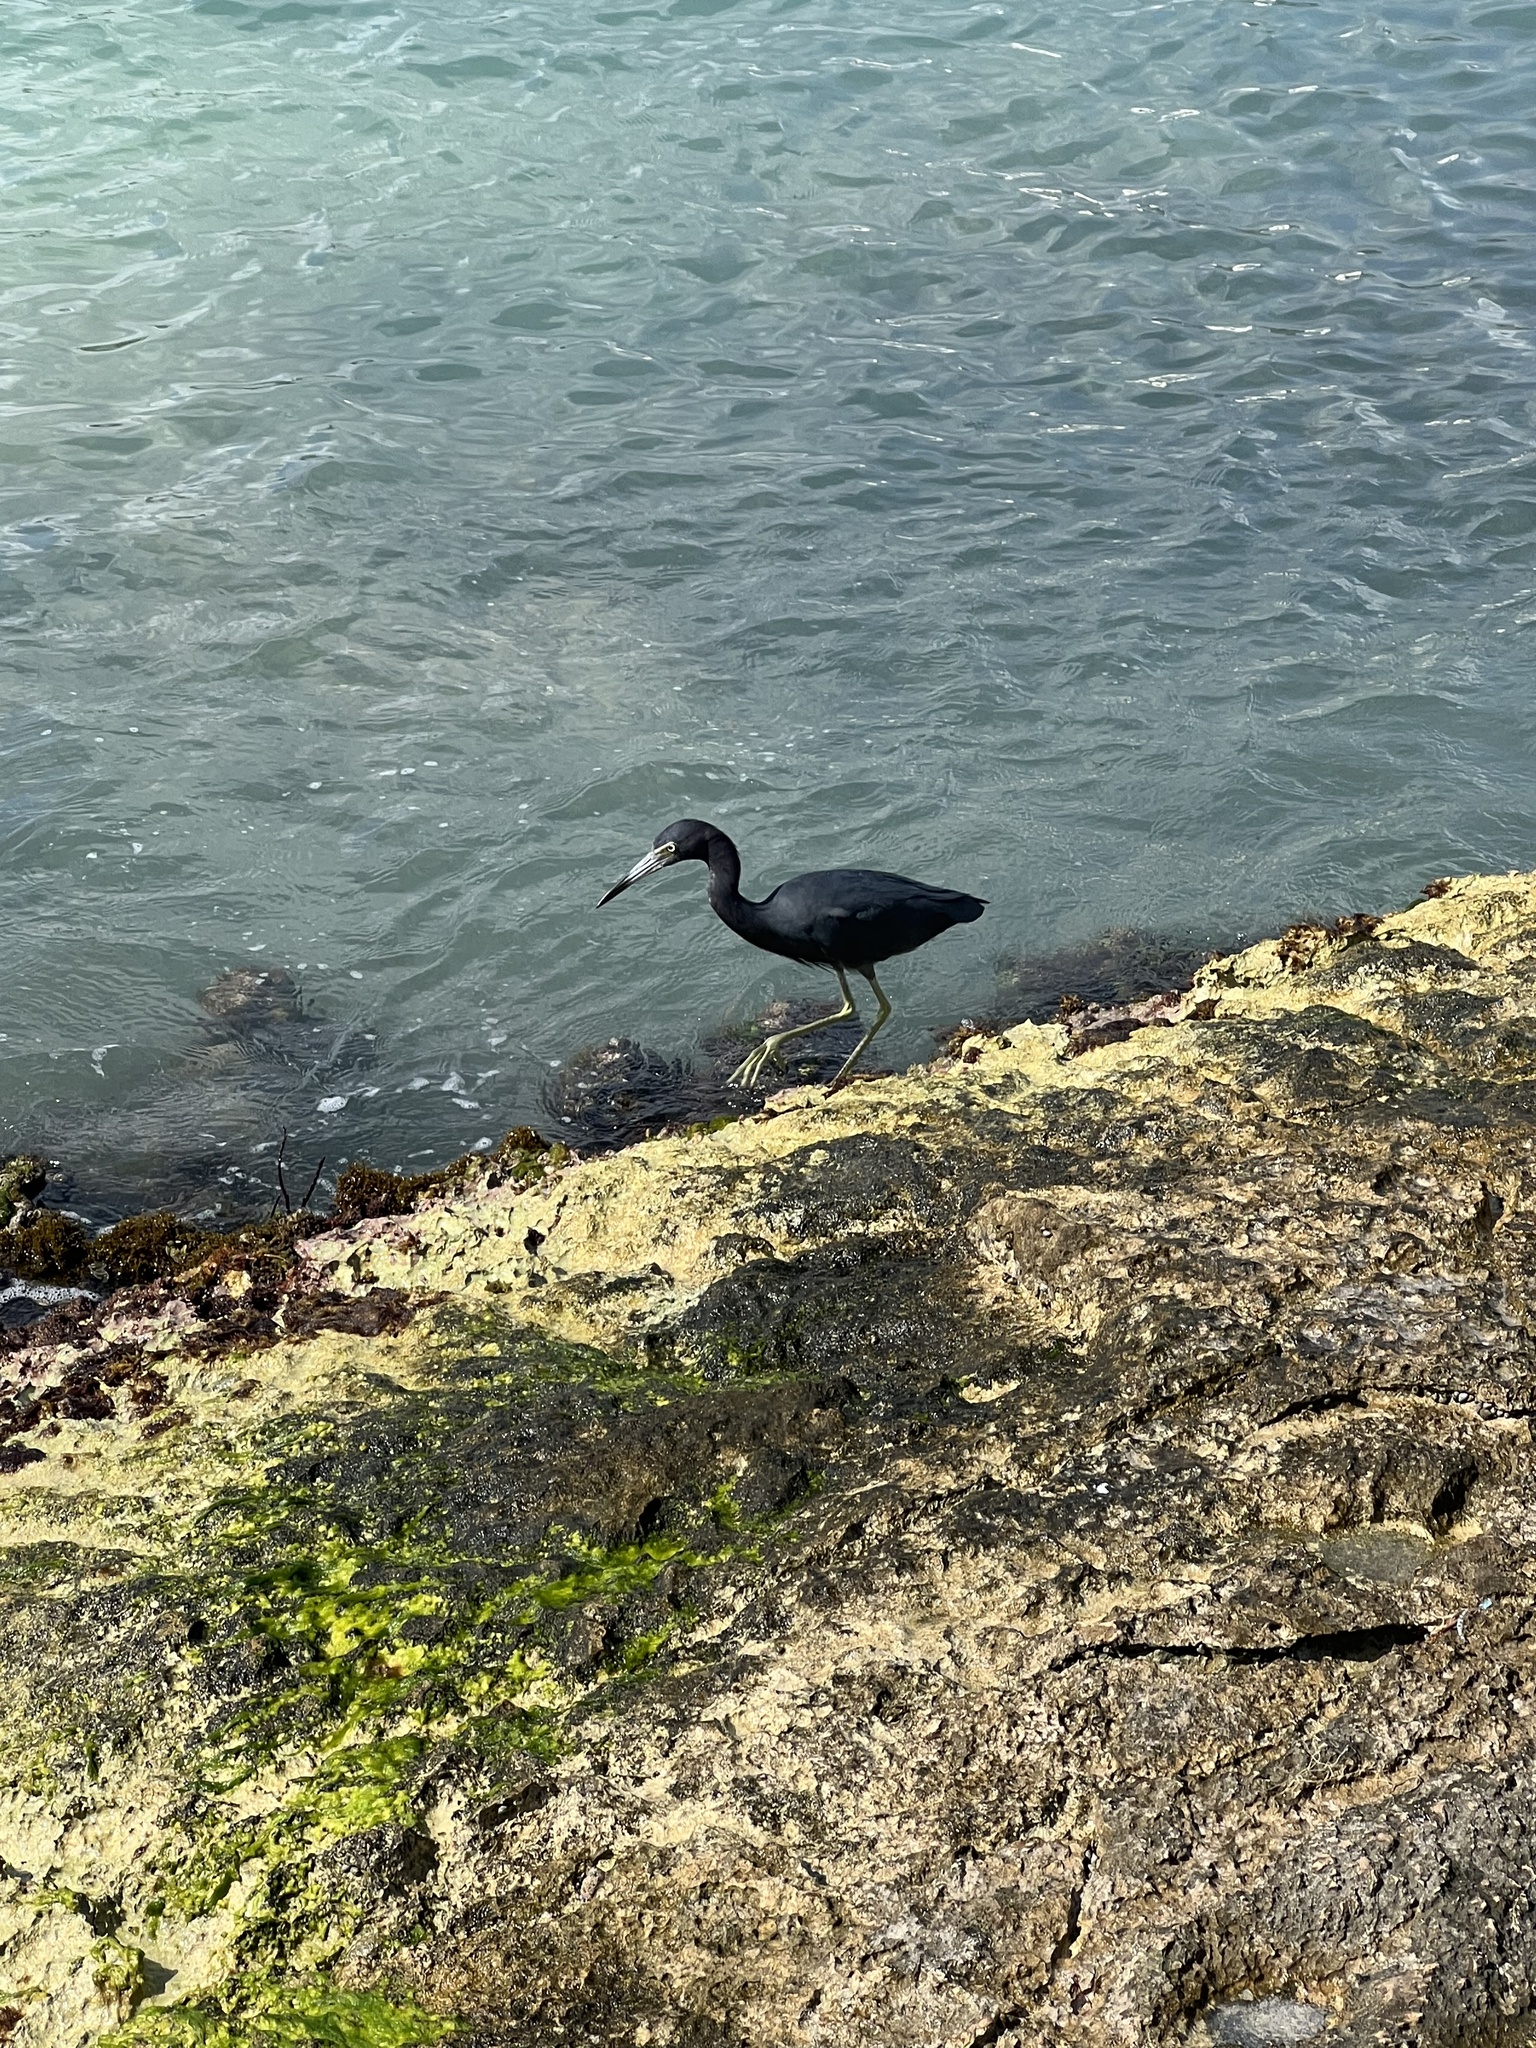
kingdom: Animalia
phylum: Chordata
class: Aves
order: Pelecaniformes
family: Ardeidae
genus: Egretta
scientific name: Egretta caerulea
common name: Little blue heron
